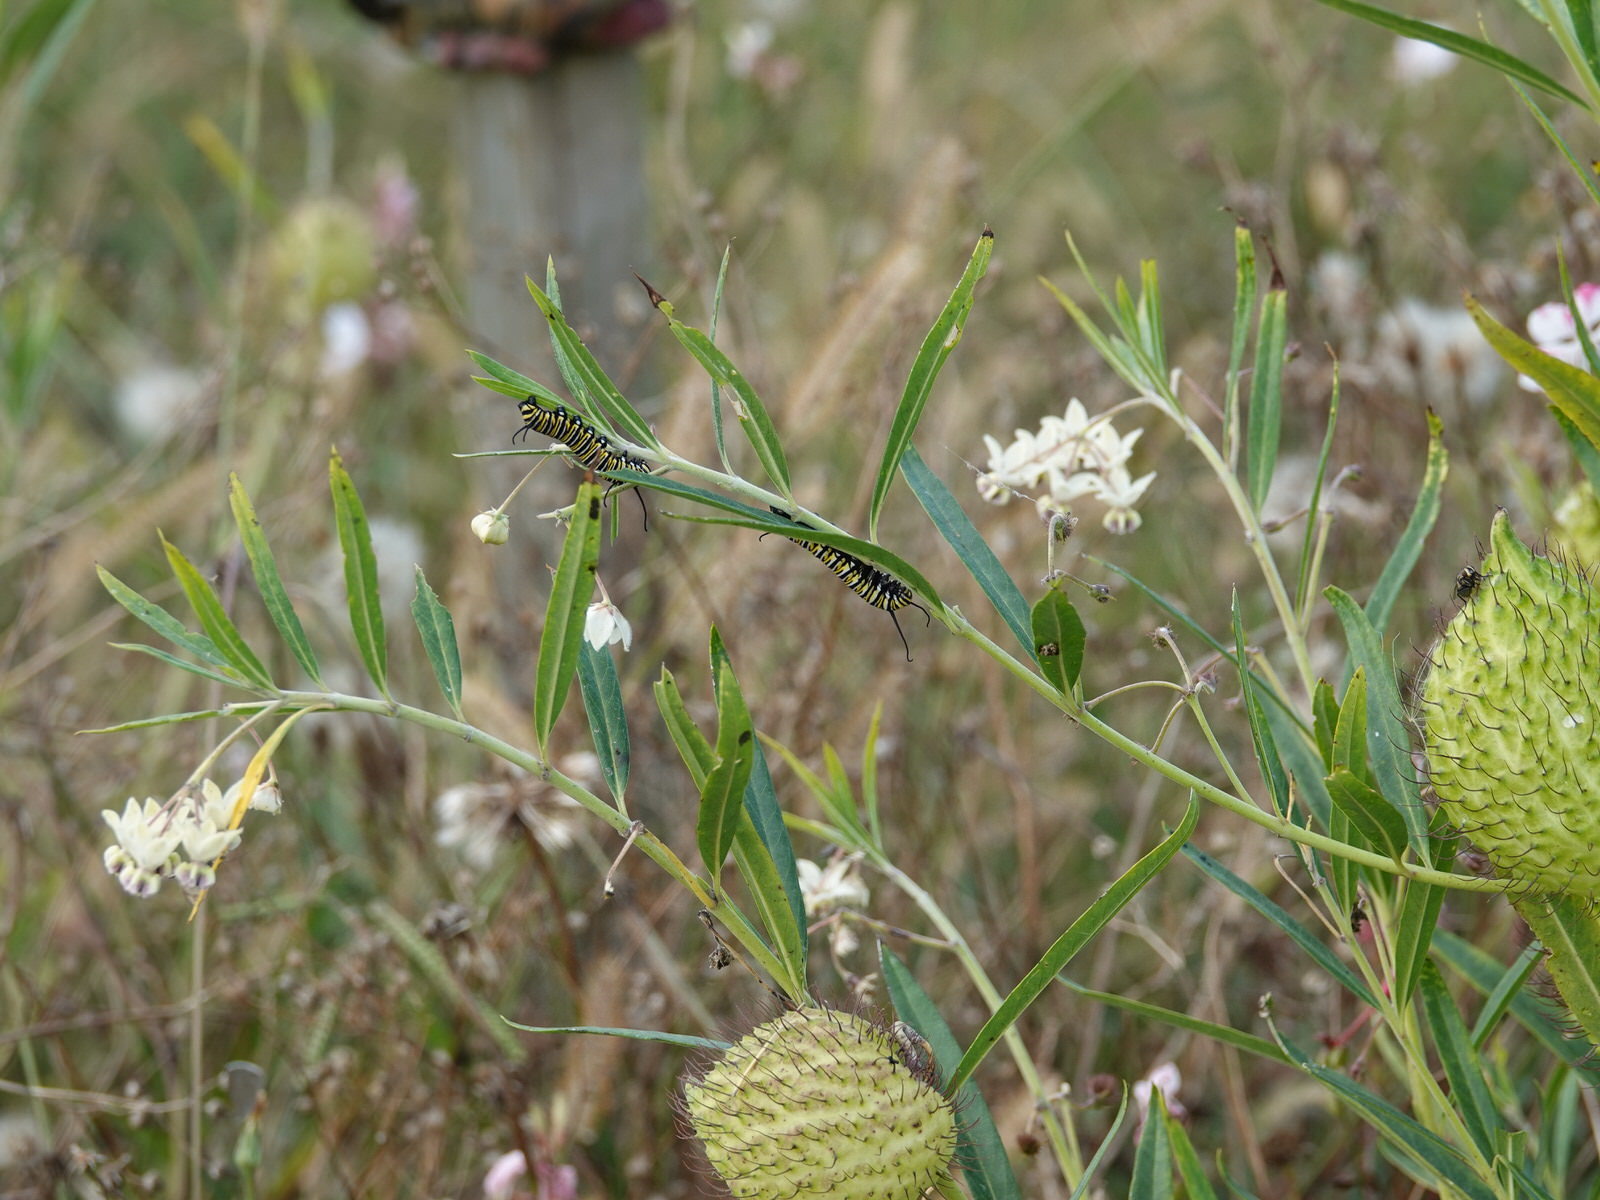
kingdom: Animalia
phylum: Arthropoda
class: Insecta
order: Lepidoptera
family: Nymphalidae
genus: Danaus
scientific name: Danaus plexippus
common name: Monarch
